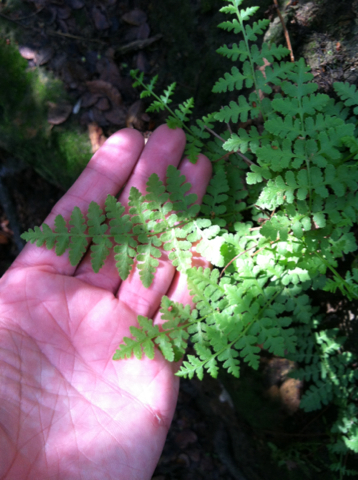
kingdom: Plantae
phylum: Tracheophyta
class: Polypodiopsida
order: Polypodiales
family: Woodsiaceae
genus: Physematium
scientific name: Physematium obtusum
